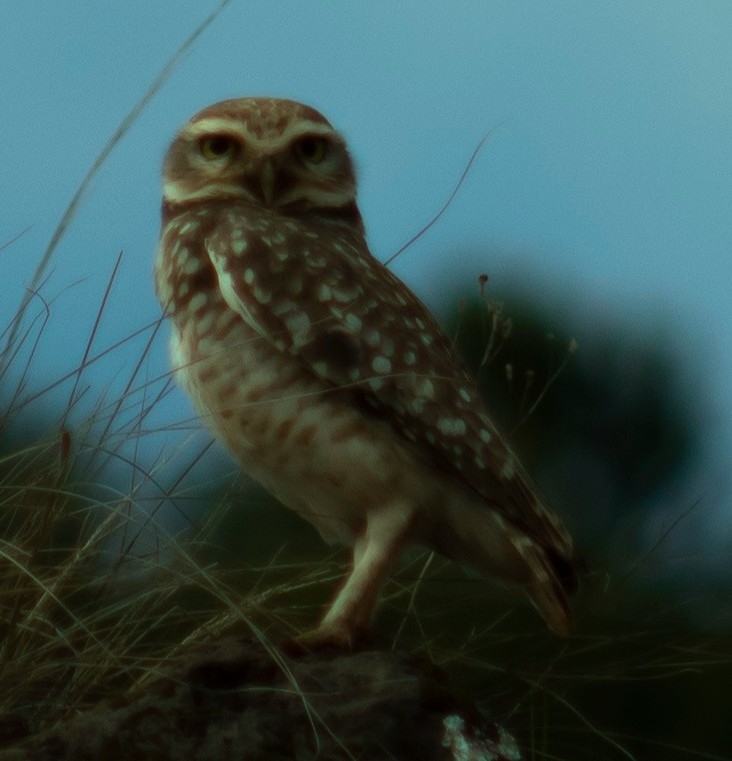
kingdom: Animalia
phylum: Chordata
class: Aves
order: Strigiformes
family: Strigidae
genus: Athene
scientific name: Athene cunicularia
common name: Burrowing owl
